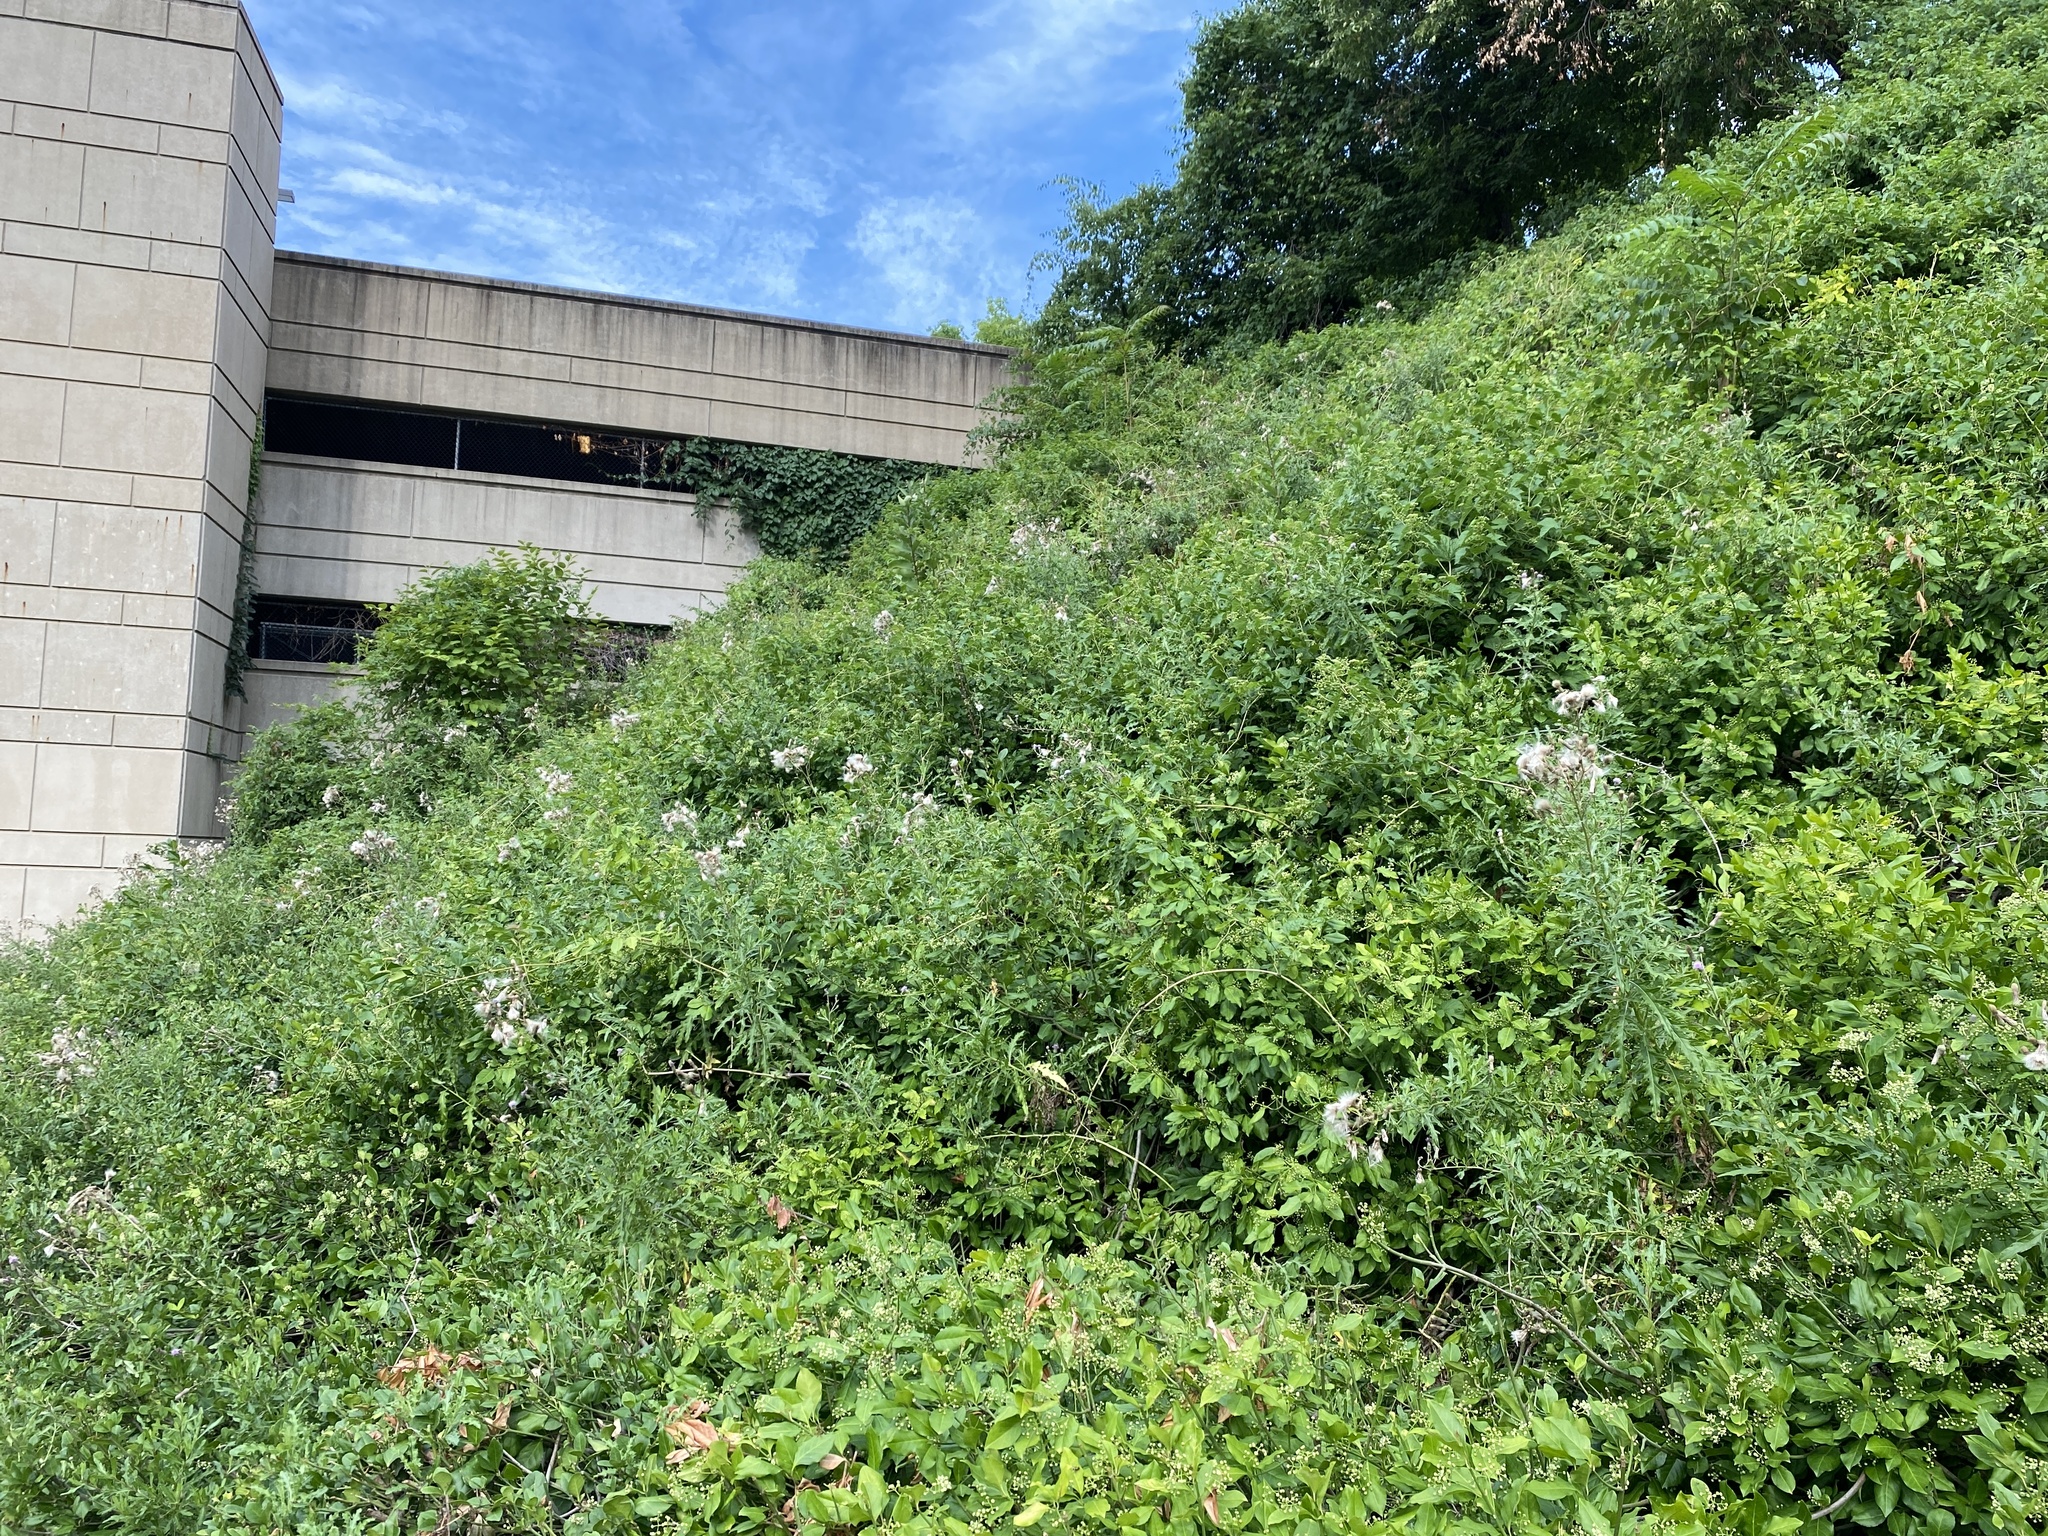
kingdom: Plantae
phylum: Tracheophyta
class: Magnoliopsida
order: Asterales
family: Asteraceae
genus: Cirsium
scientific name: Cirsium arvense
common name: Creeping thistle
